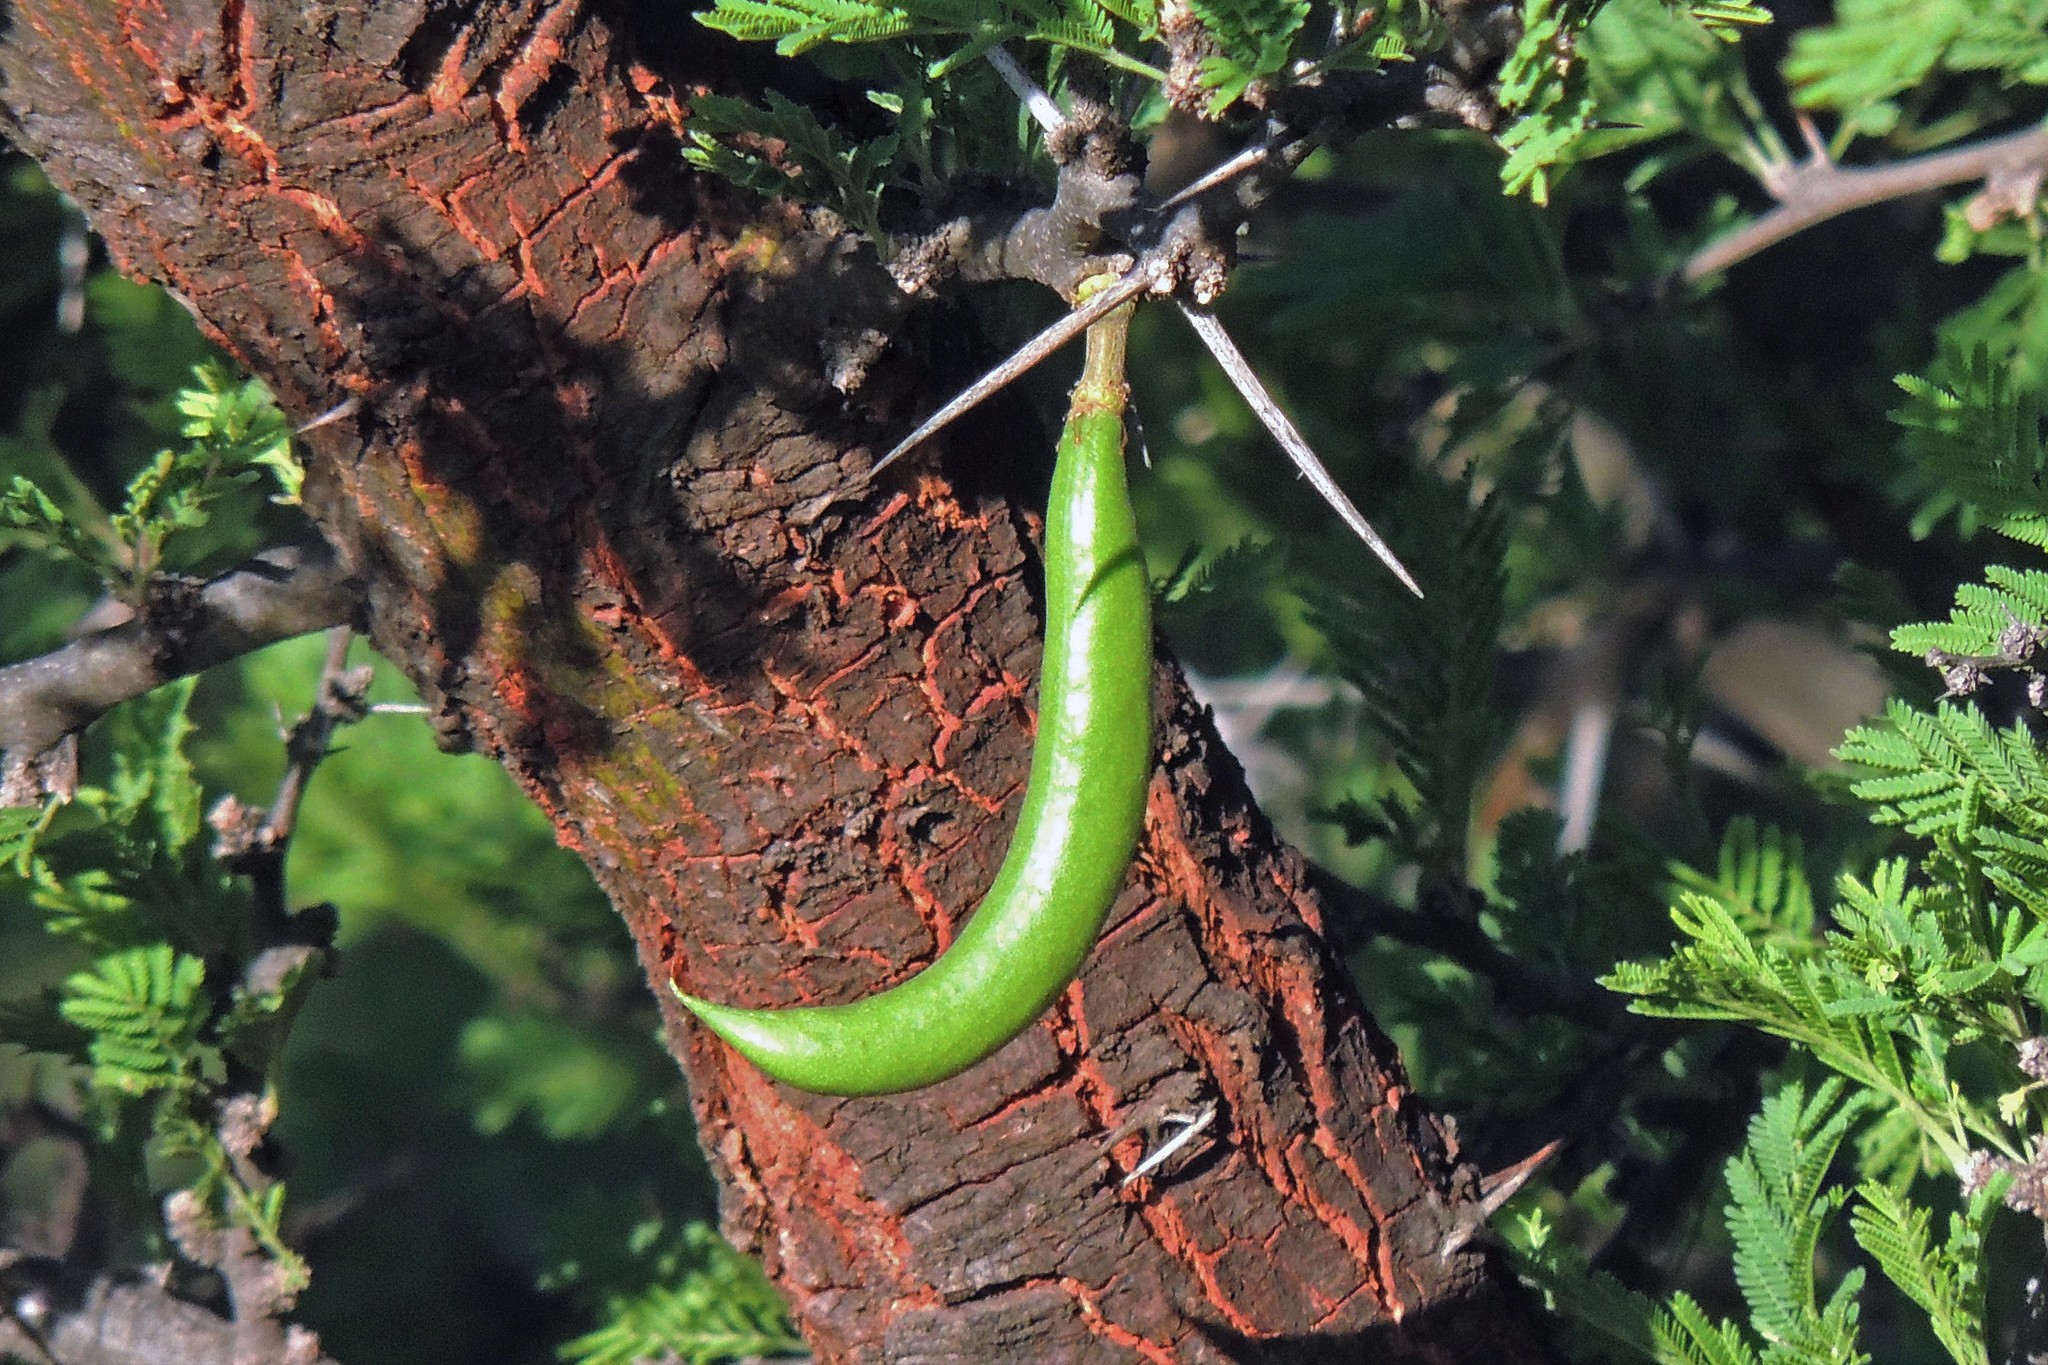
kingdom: Plantae
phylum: Tracheophyta
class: Magnoliopsida
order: Fabales
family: Fabaceae
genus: Vachellia
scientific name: Vachellia caven
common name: Roman cassie
